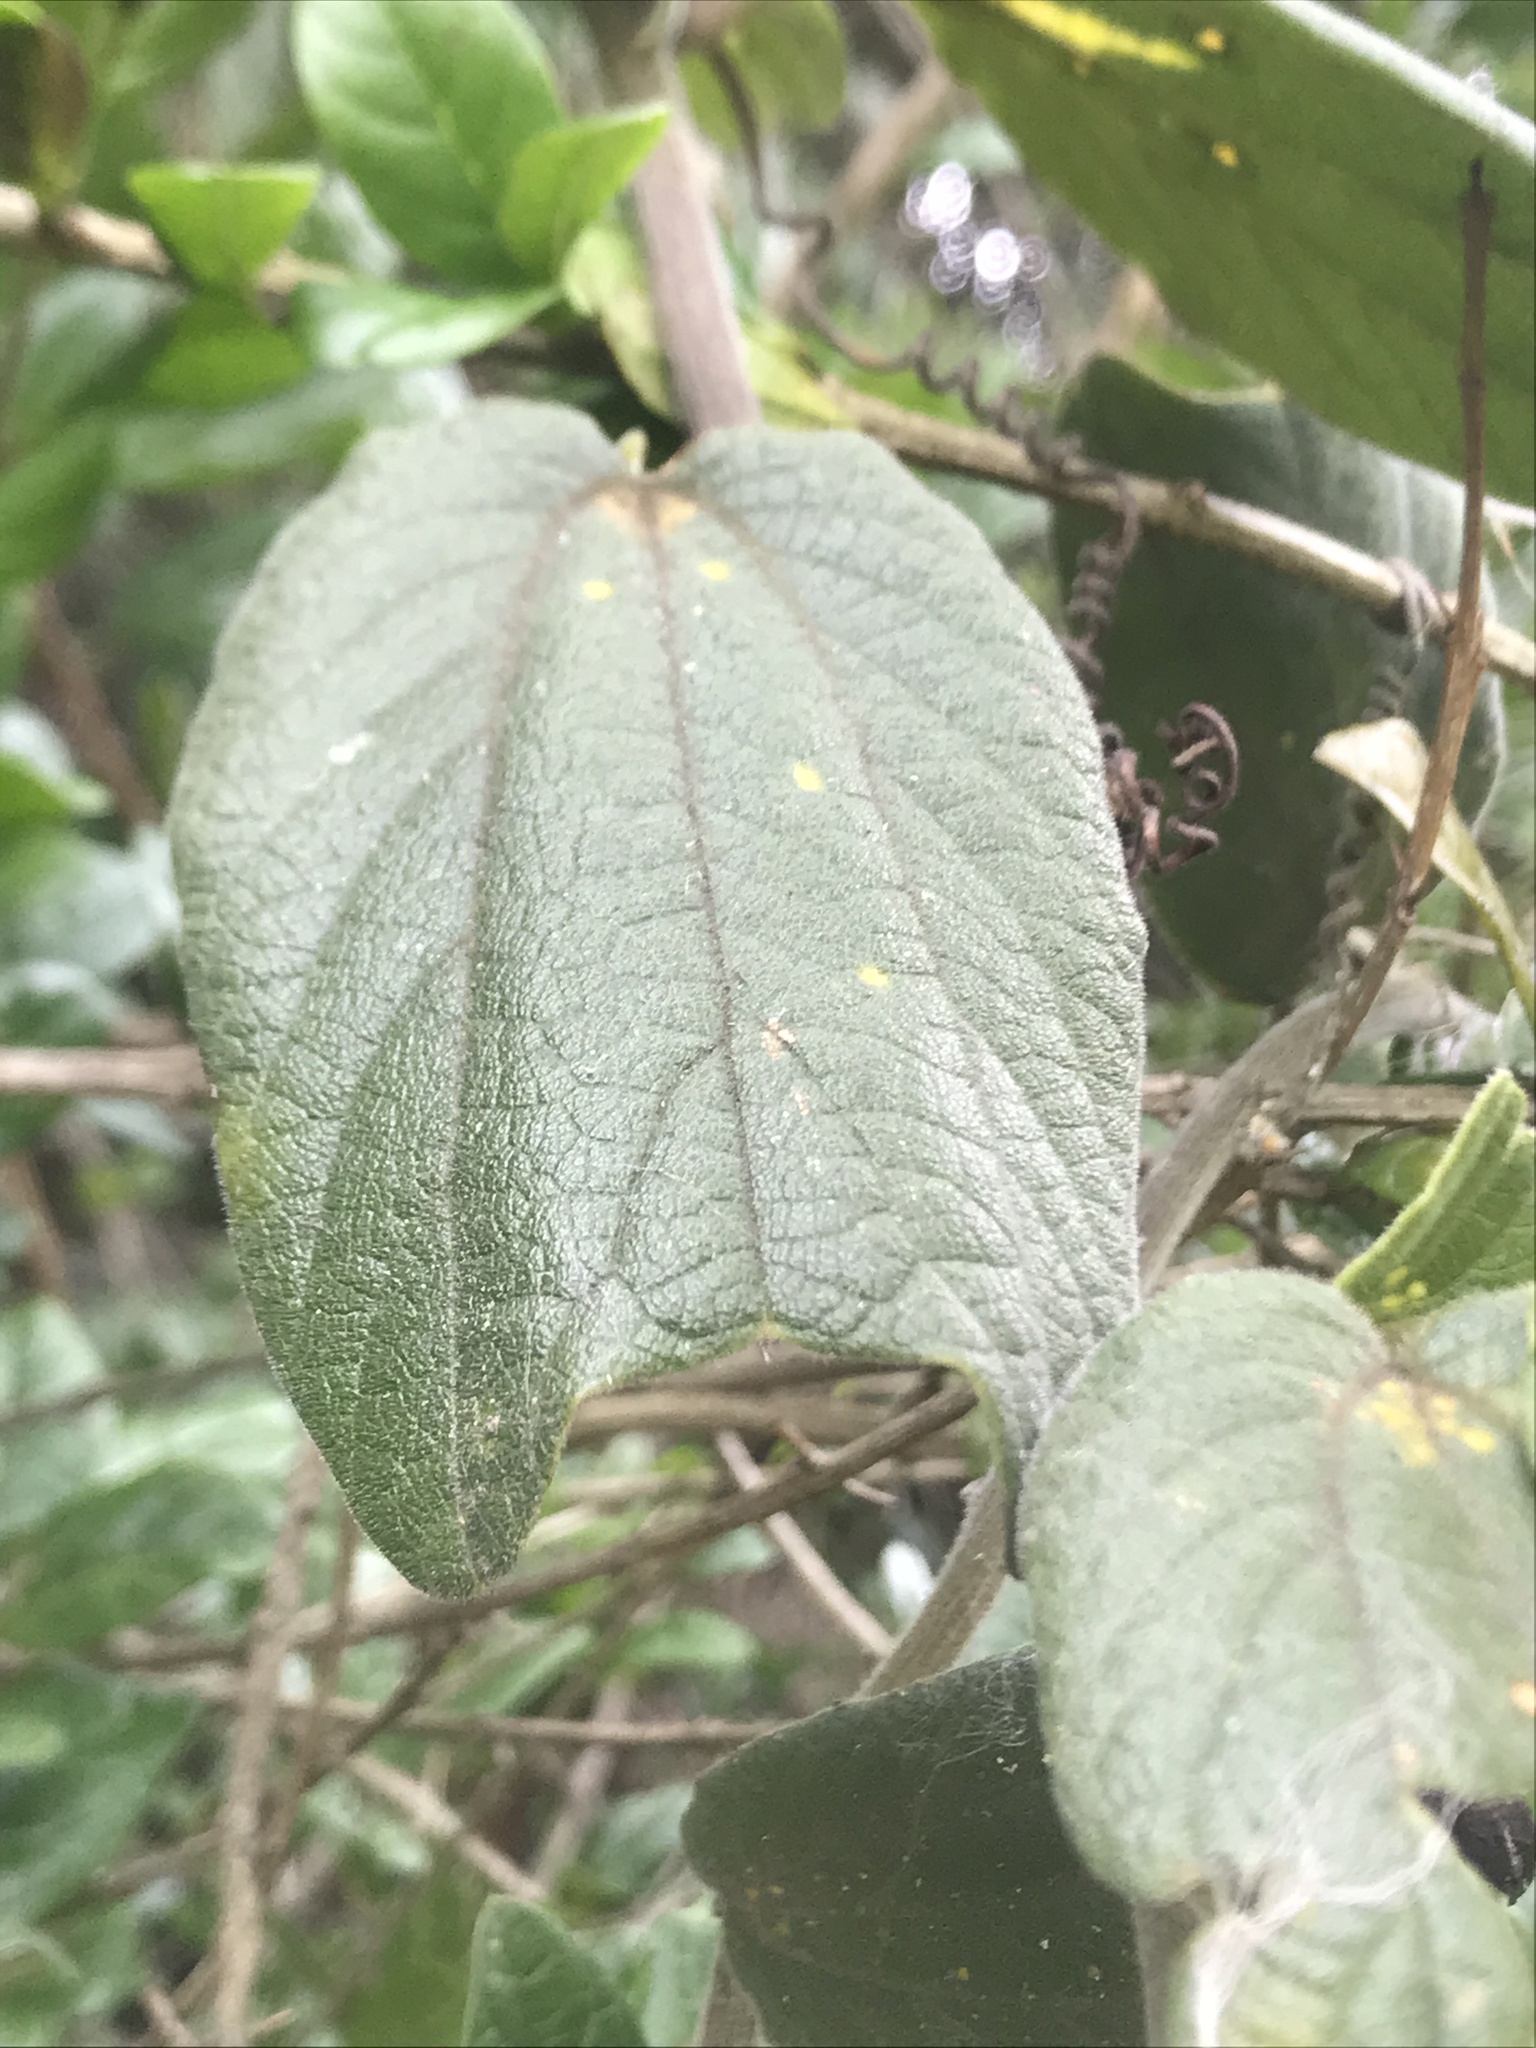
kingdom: Plantae
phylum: Tracheophyta
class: Magnoliopsida
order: Malpighiales
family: Passifloraceae
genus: Passiflora
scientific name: Passiflora bogotensis
